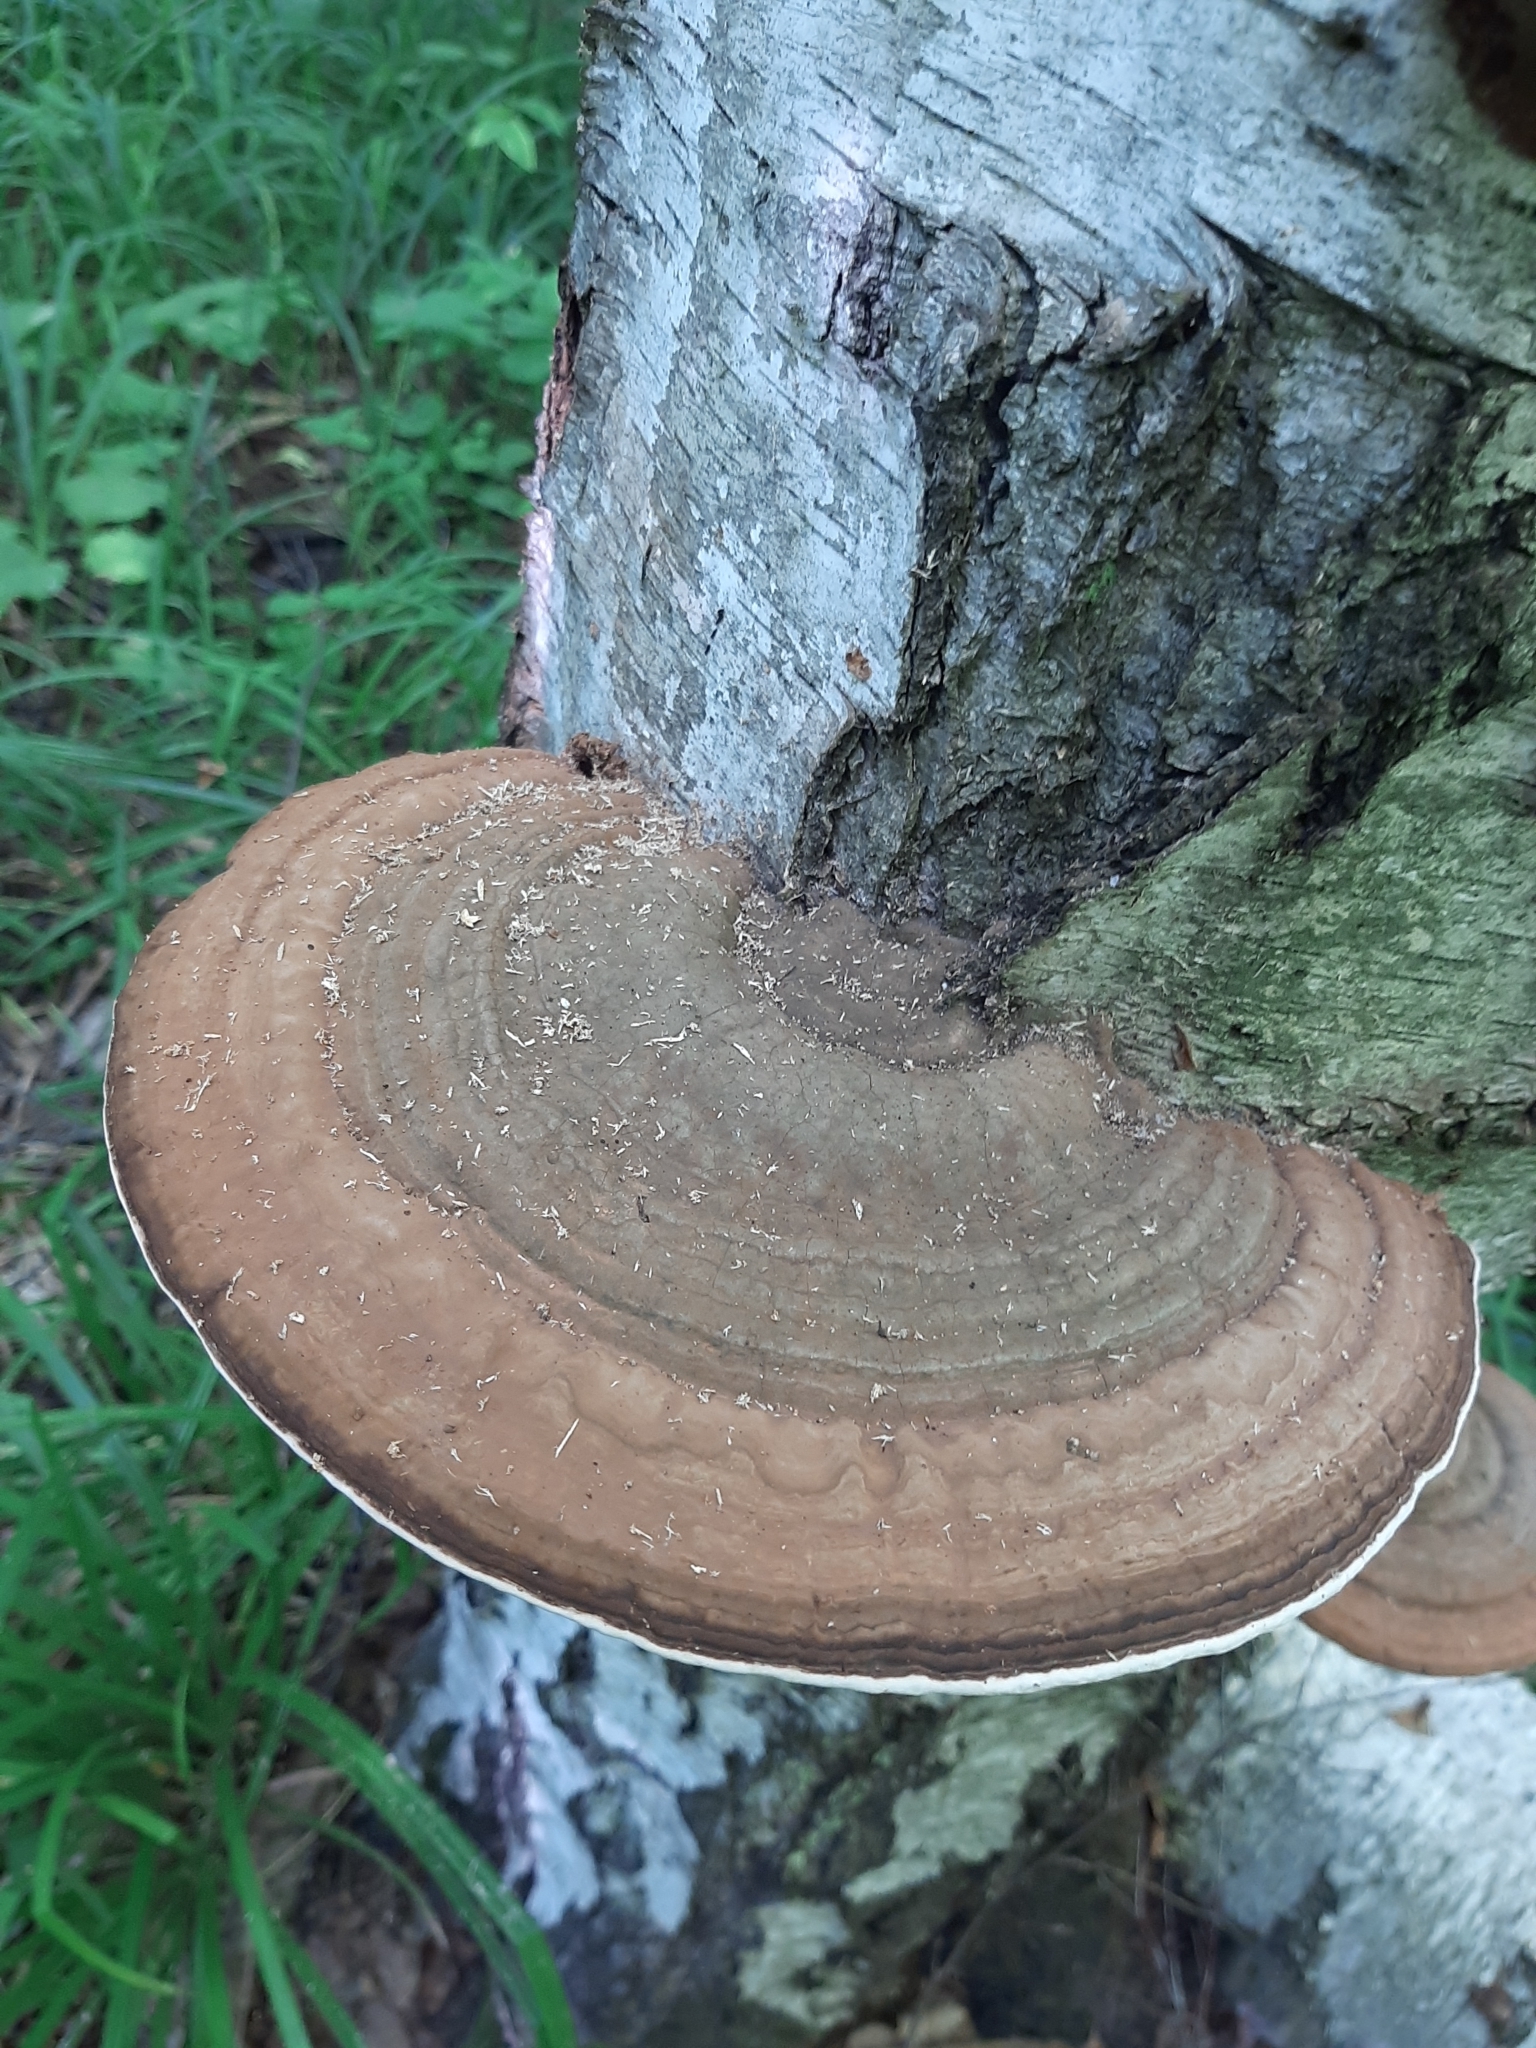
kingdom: Fungi
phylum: Basidiomycota
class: Agaricomycetes
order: Polyporales
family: Polyporaceae
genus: Ganoderma
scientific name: Ganoderma applanatum
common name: Artist's bracket
